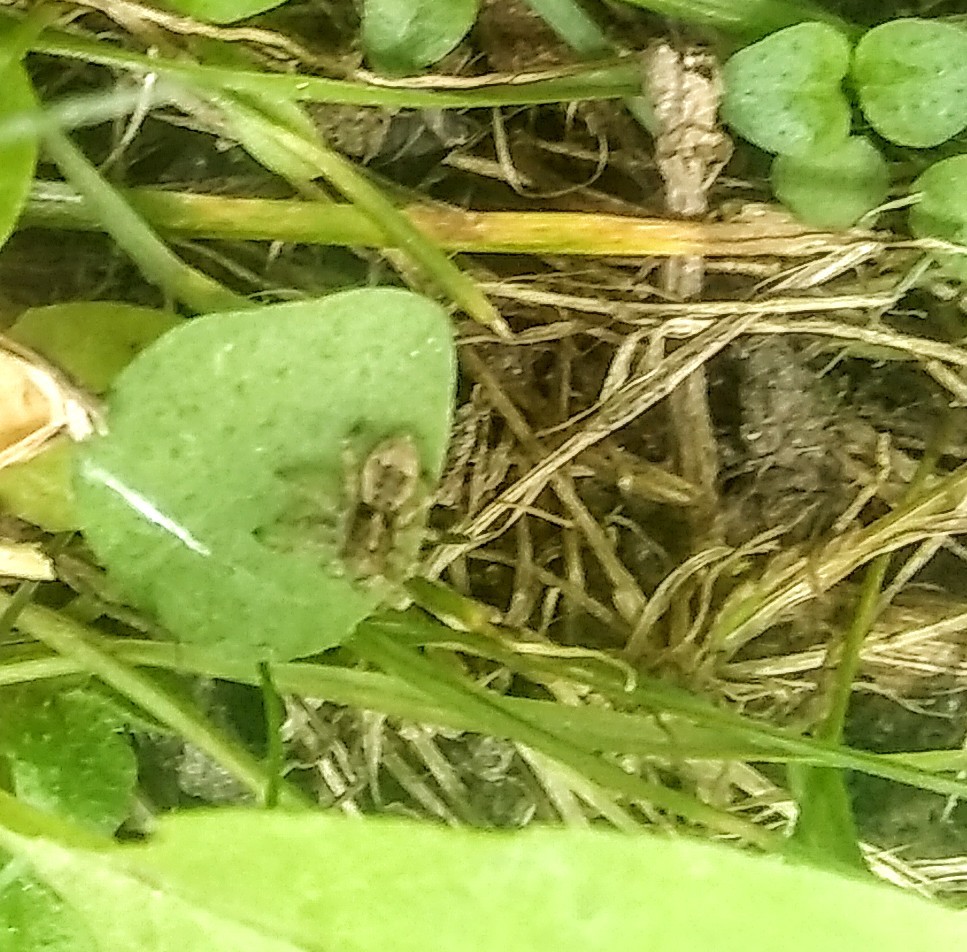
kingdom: Animalia
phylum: Arthropoda
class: Arachnida
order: Araneae
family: Salticidae
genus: Attulus
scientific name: Attulus fasciger
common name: Asiatic wall jumping spider
